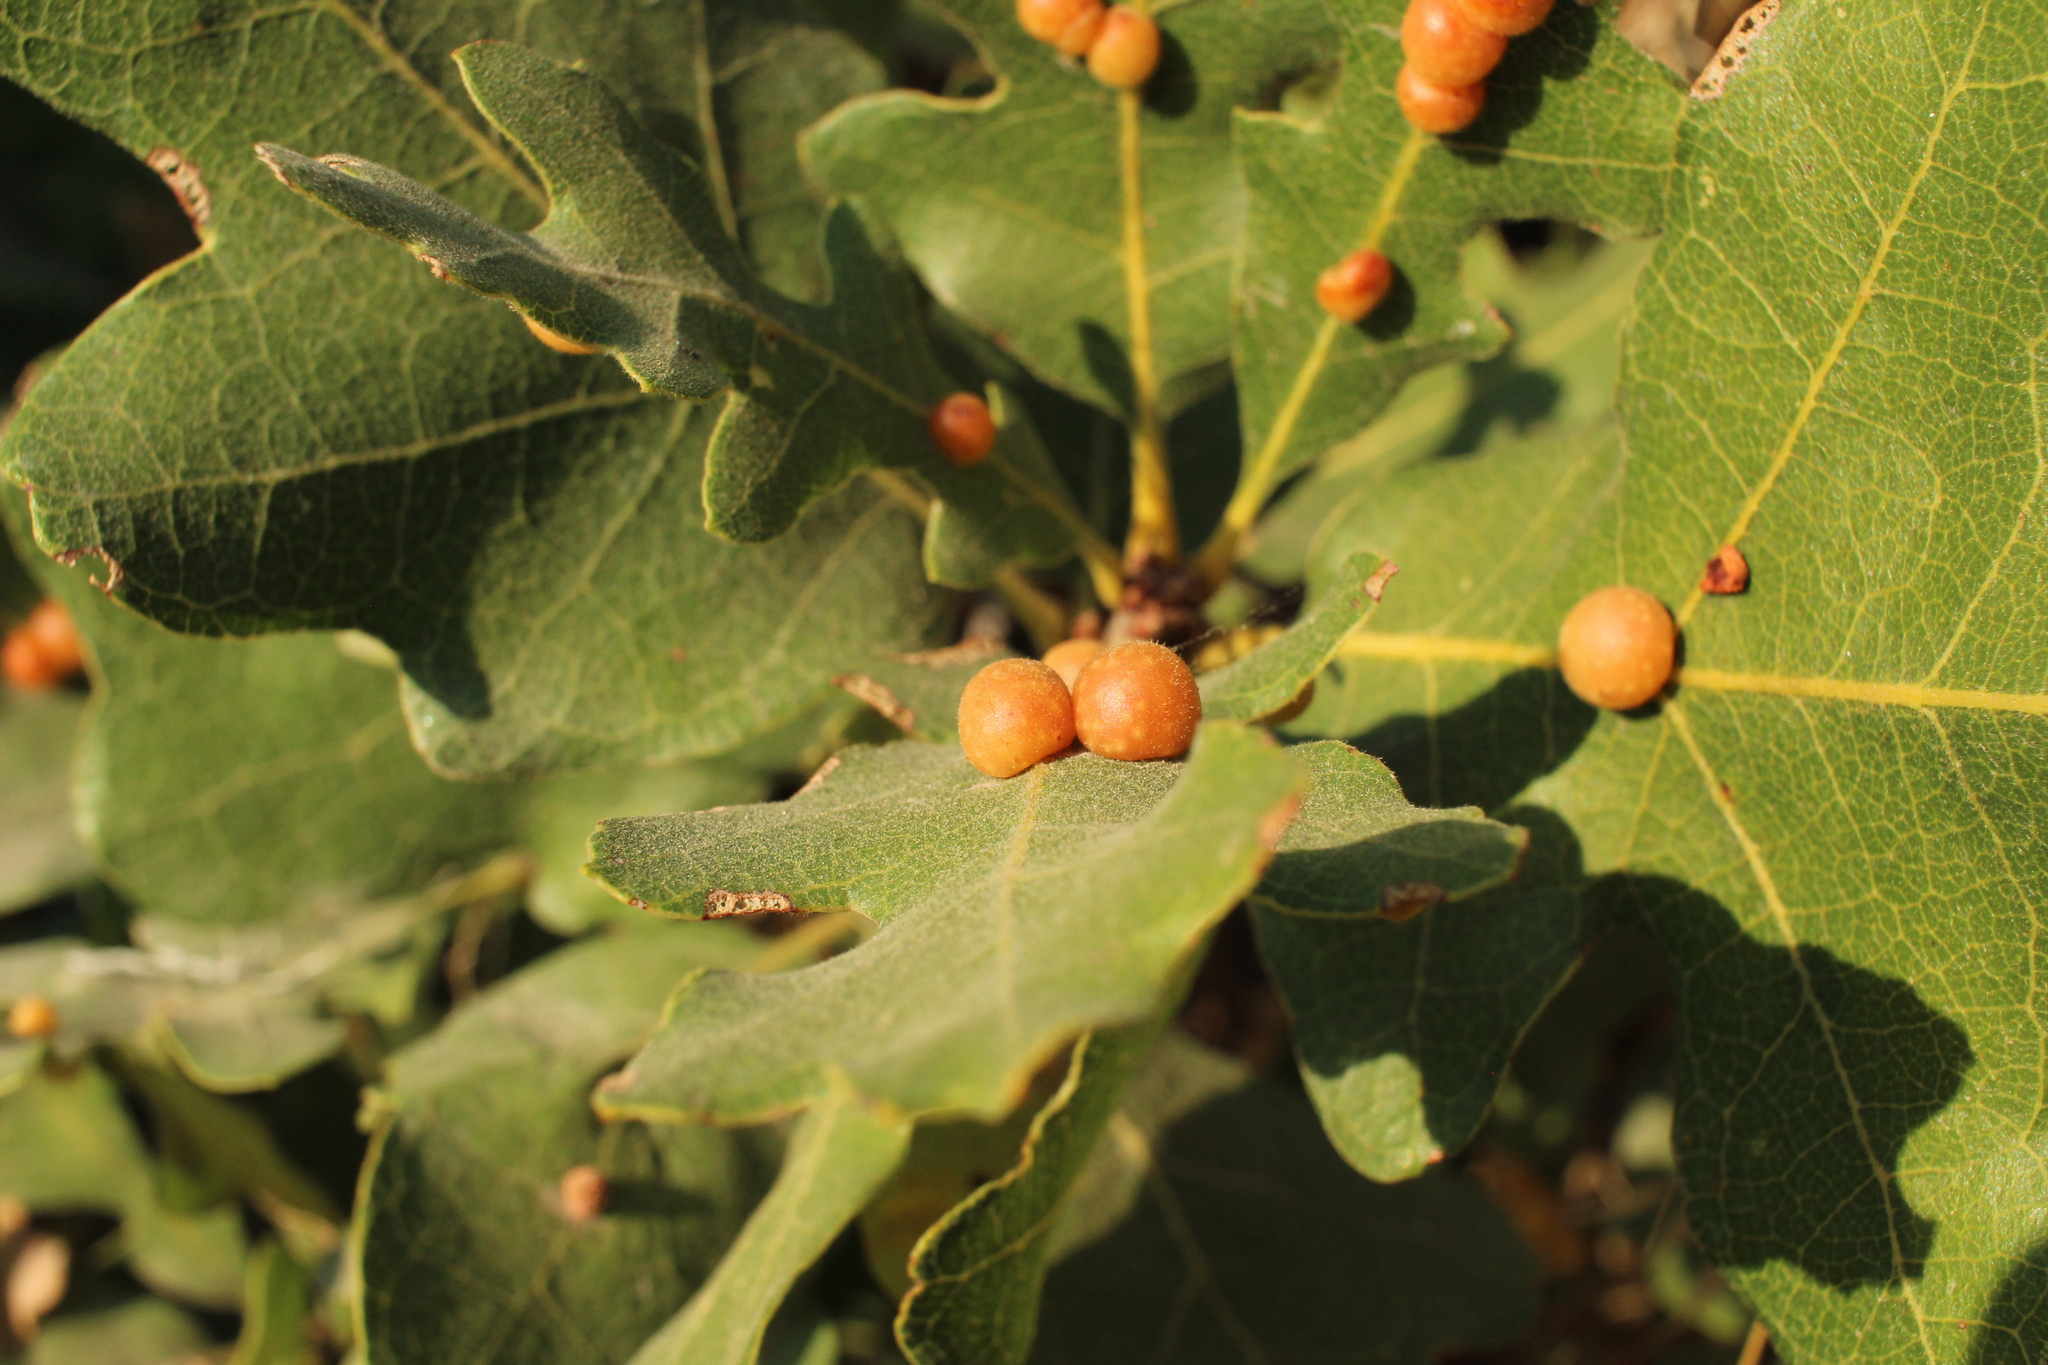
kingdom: Animalia
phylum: Arthropoda
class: Insecta
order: Hymenoptera
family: Cynipidae
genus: Trigonaspis
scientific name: Trigonaspis
